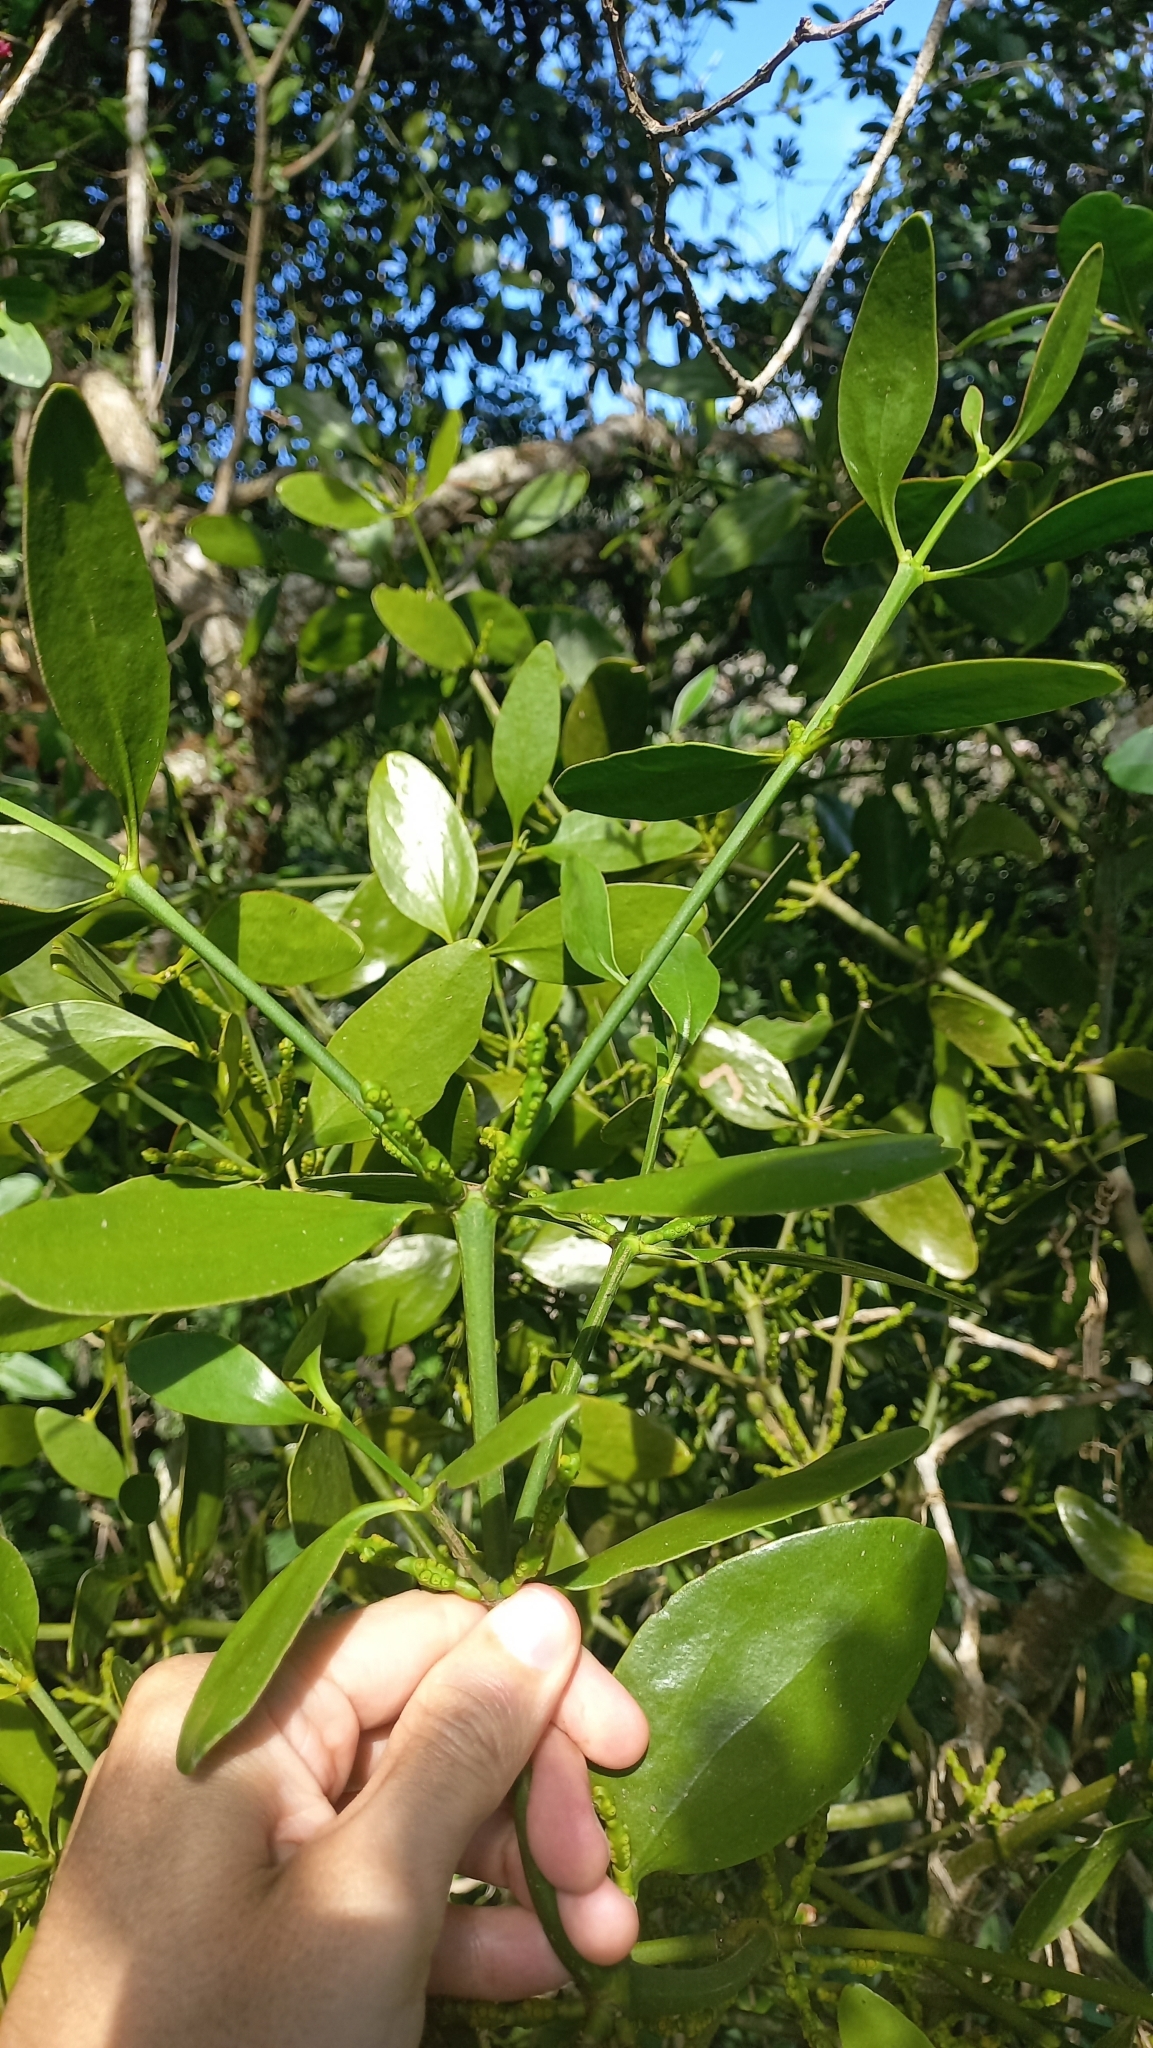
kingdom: Plantae
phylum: Tracheophyta
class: Magnoliopsida
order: Santalales
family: Viscaceae
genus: Phoradendron
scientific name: Phoradendron bathyoryctum
